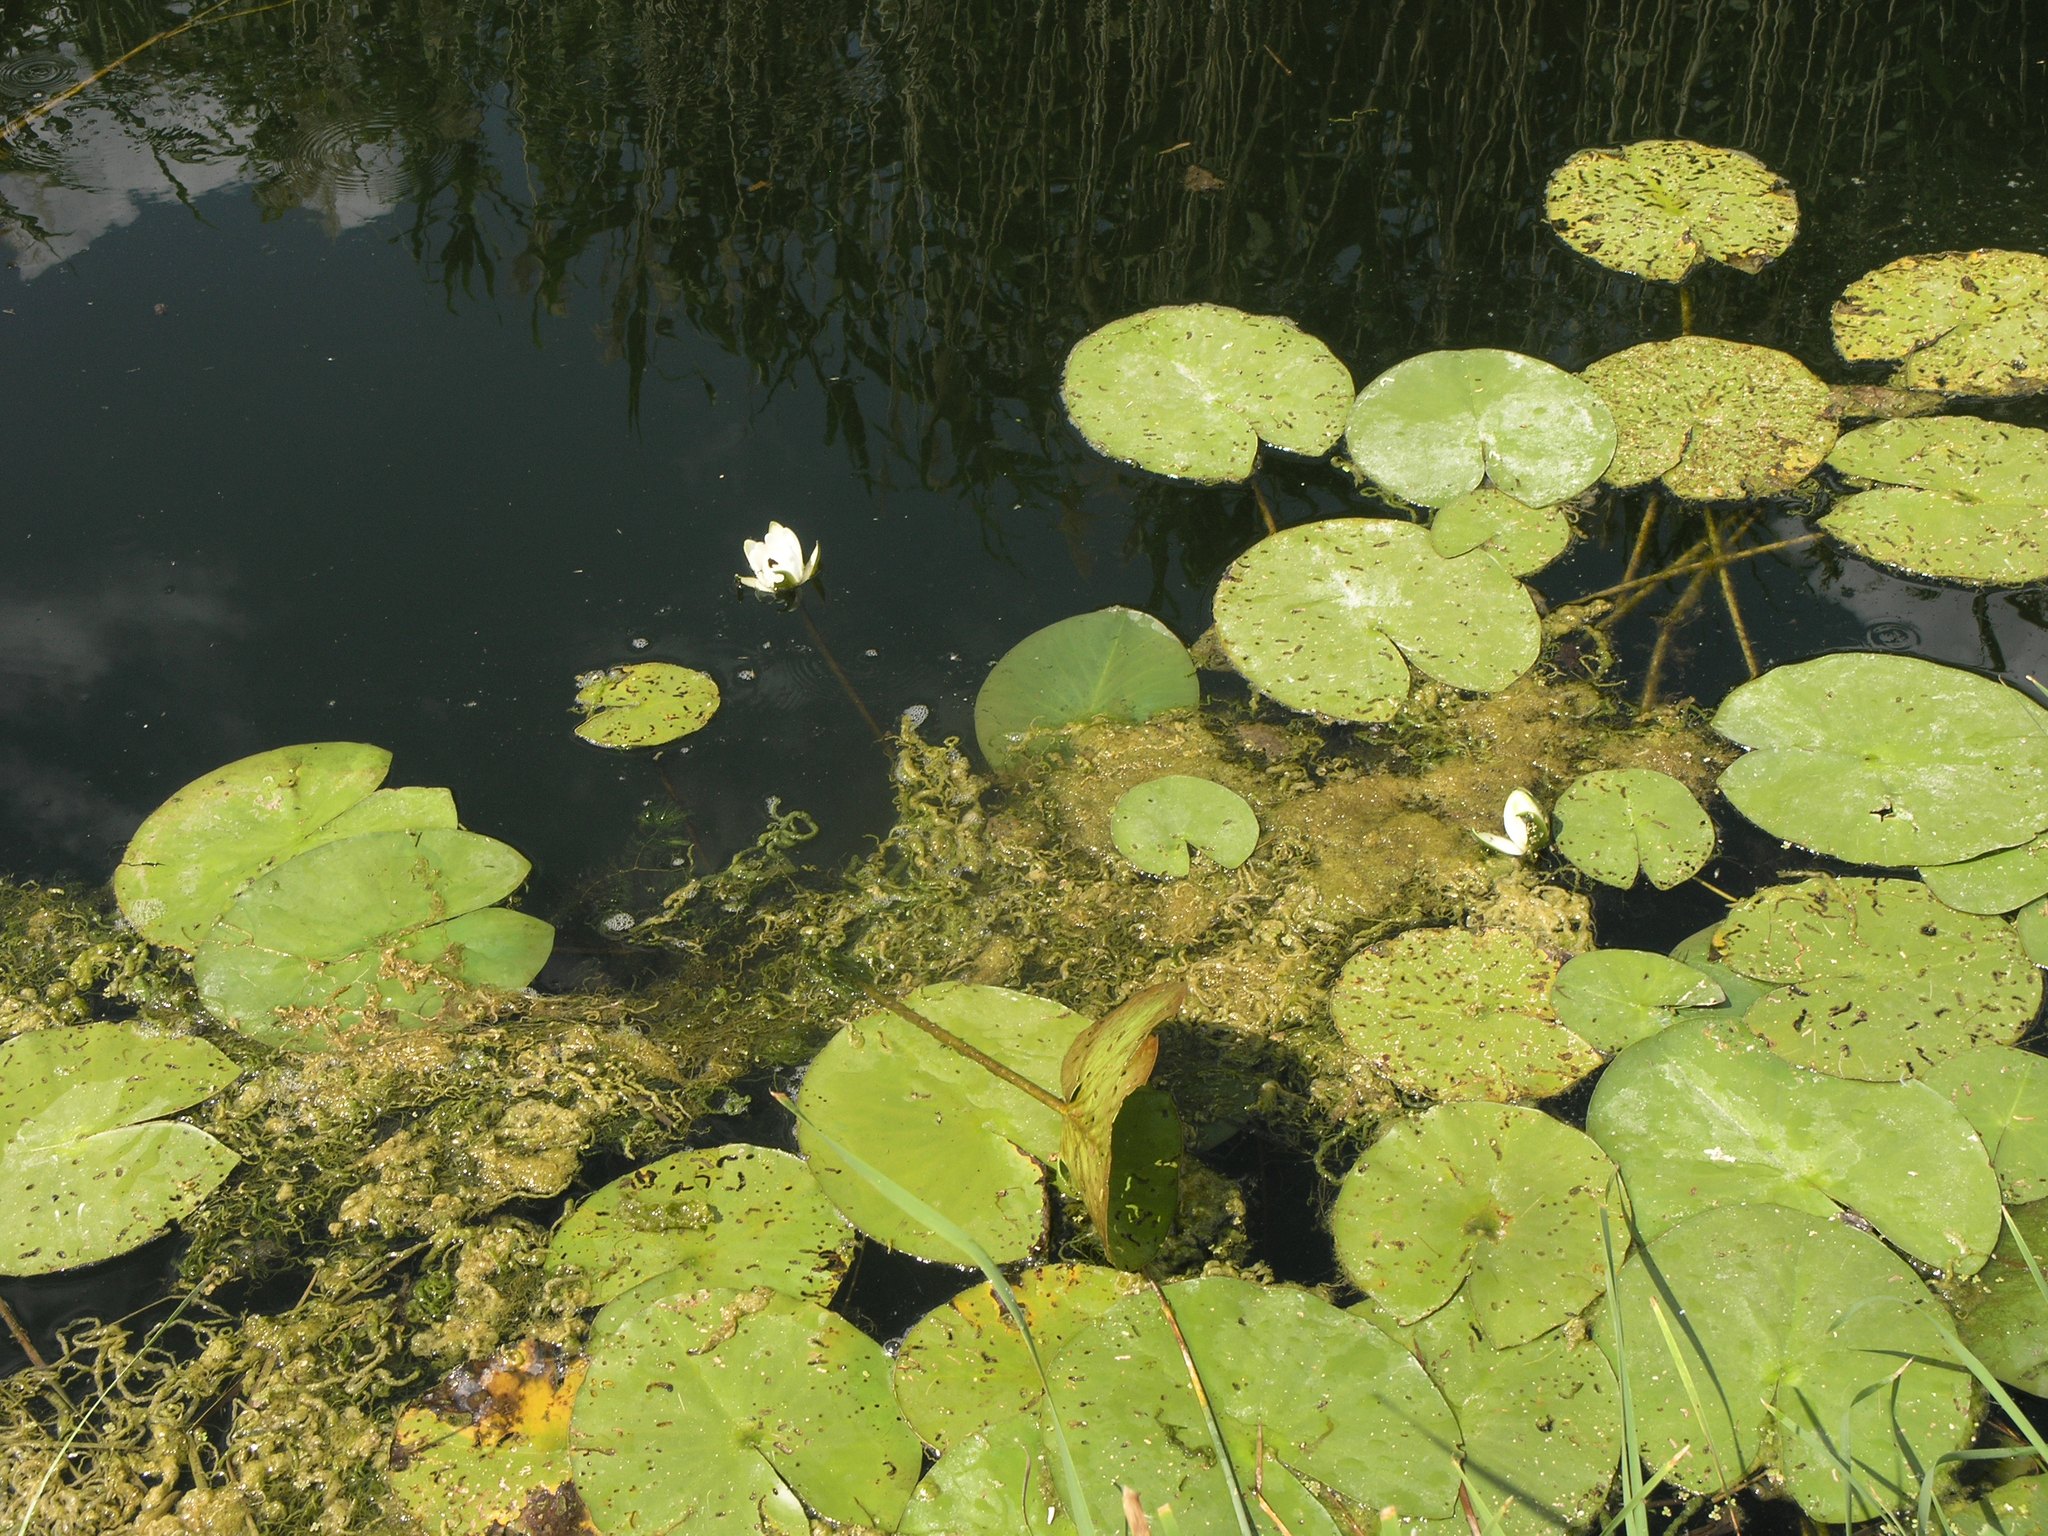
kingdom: Plantae
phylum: Tracheophyta
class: Magnoliopsida
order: Nymphaeales
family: Nymphaeaceae
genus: Nymphaea
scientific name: Nymphaea candida
